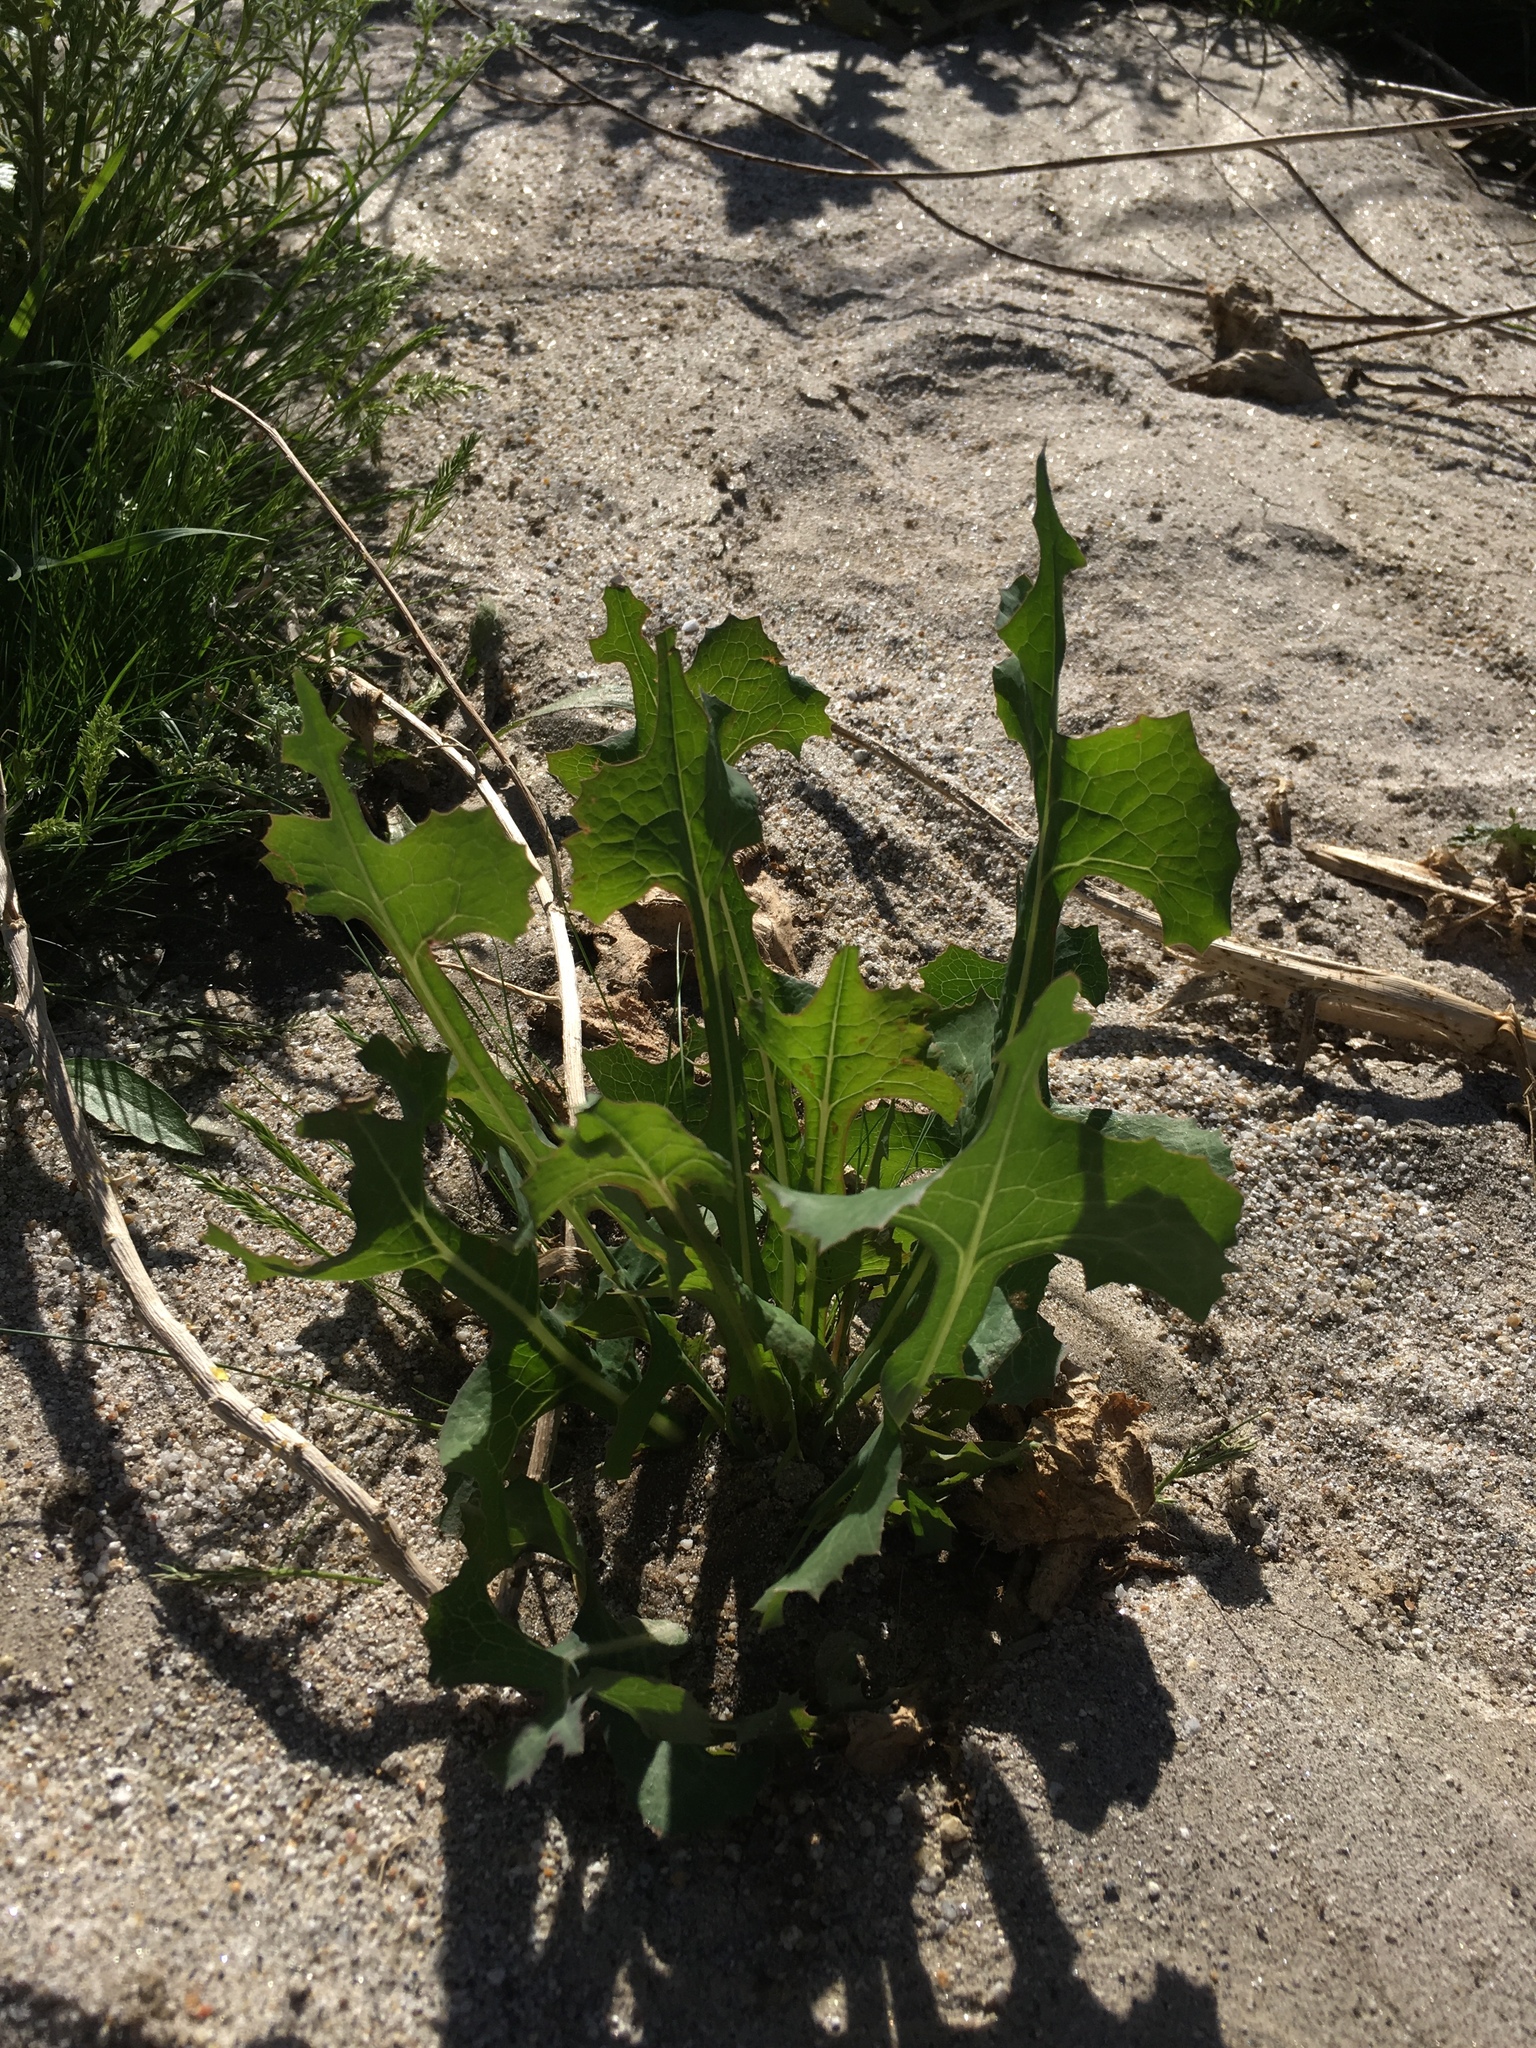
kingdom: Plantae
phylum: Tracheophyta
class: Magnoliopsida
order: Asterales
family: Asteraceae
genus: Lactuca
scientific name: Lactuca serriola
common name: Prickly lettuce
